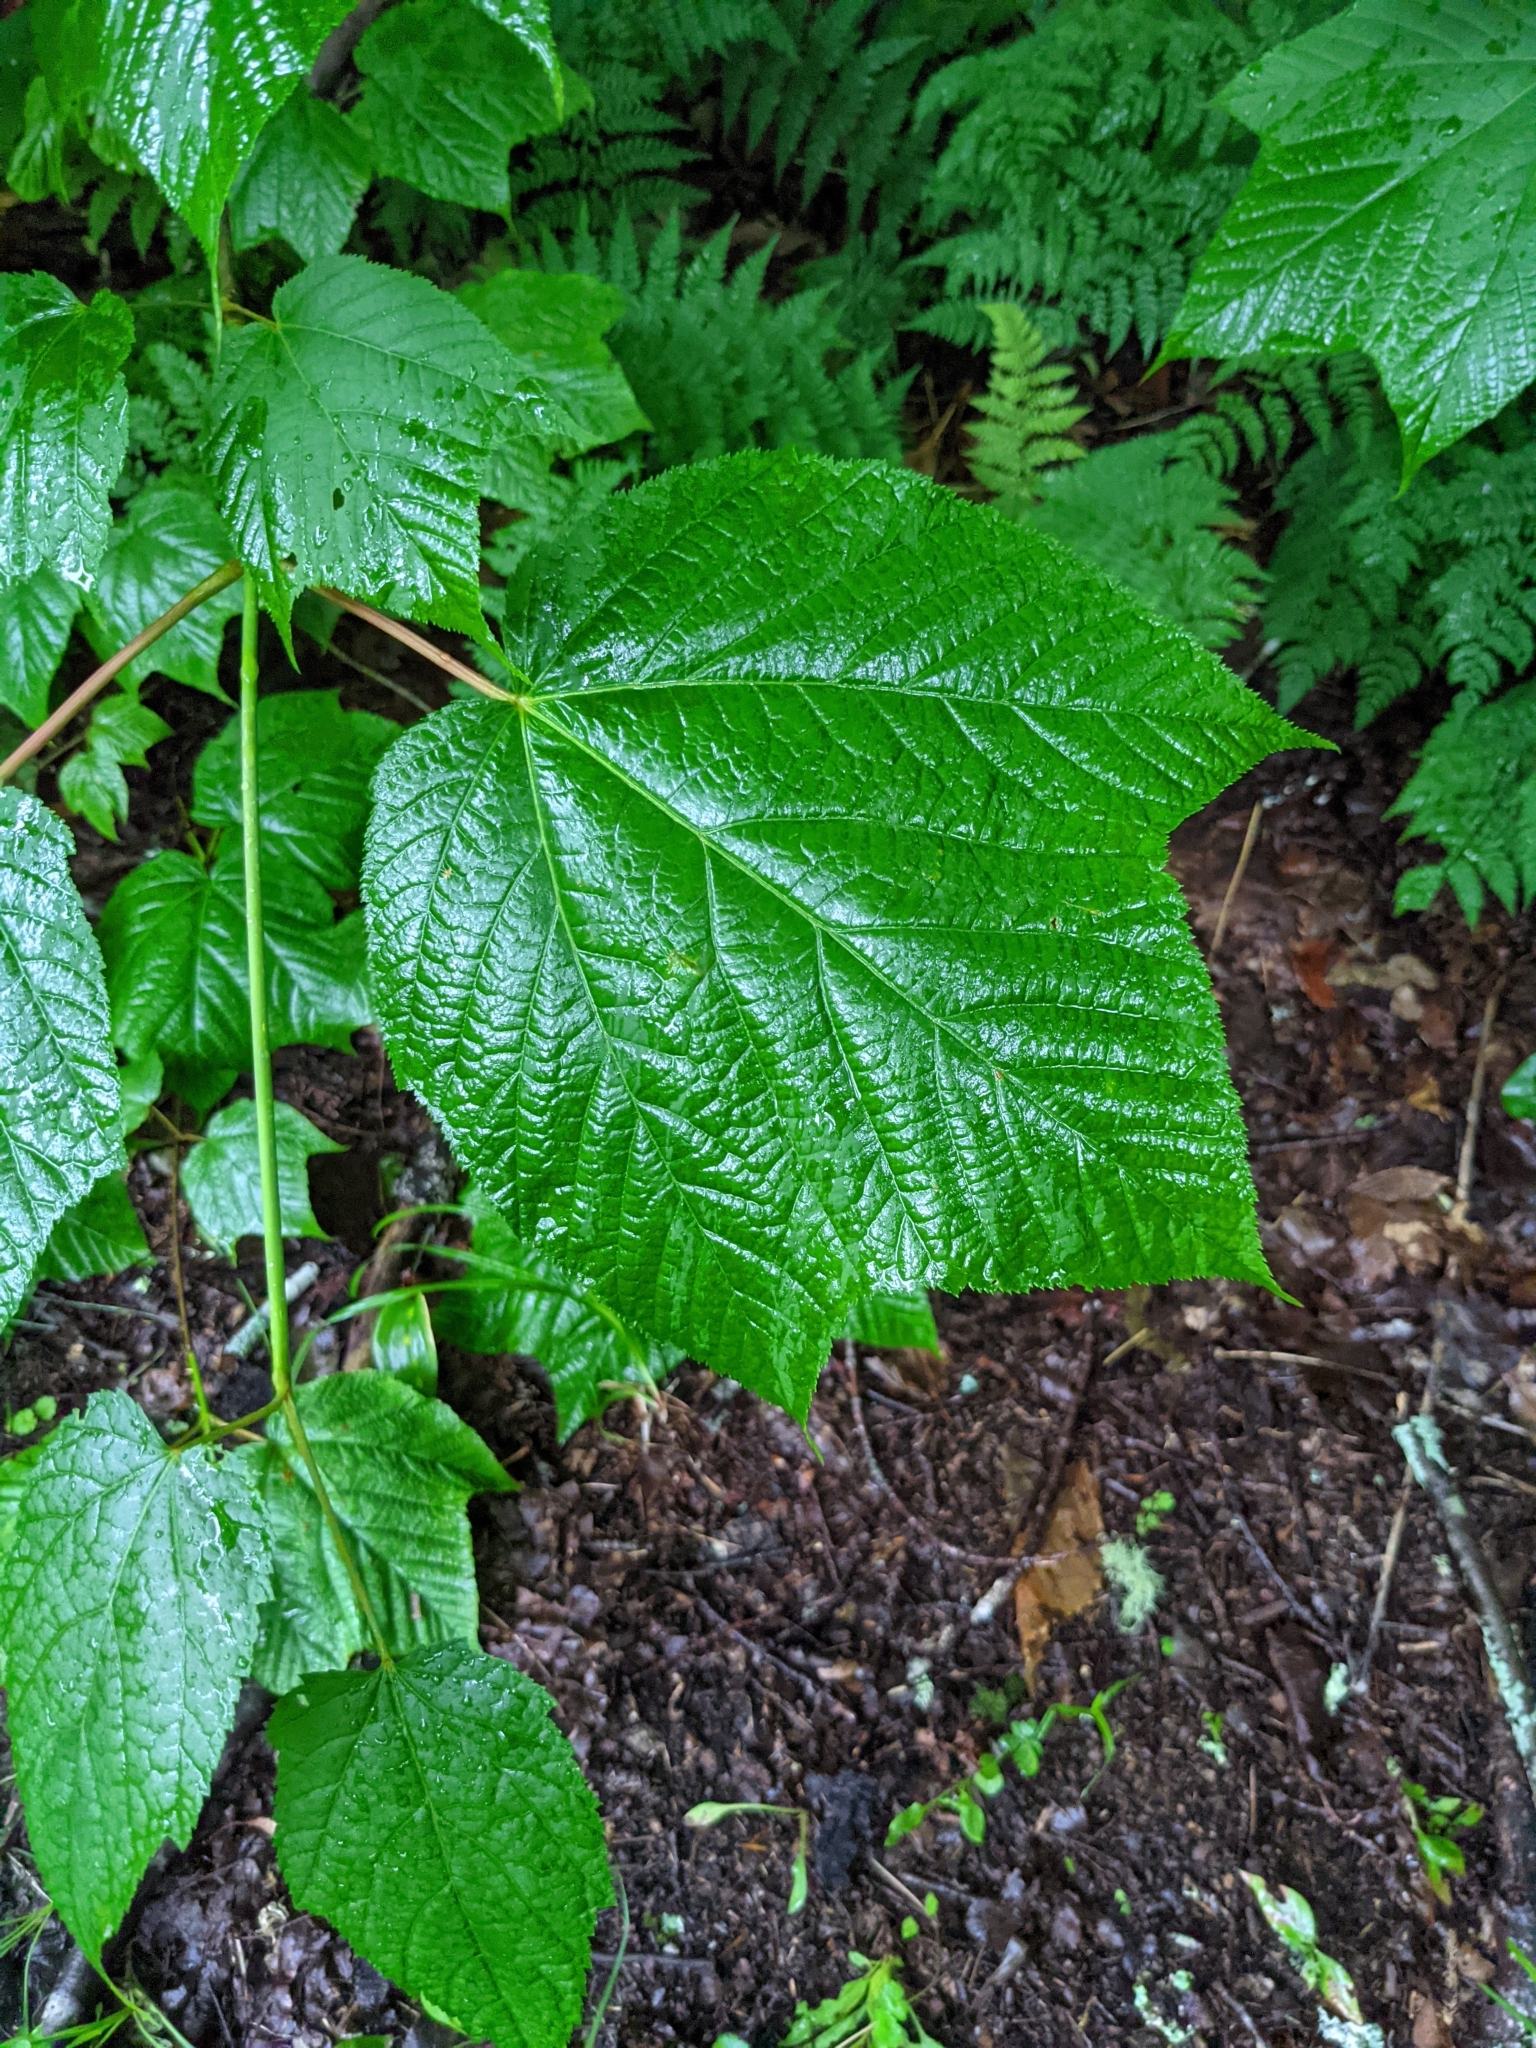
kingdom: Plantae
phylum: Tracheophyta
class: Magnoliopsida
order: Sapindales
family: Sapindaceae
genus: Acer
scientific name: Acer pensylvanicum
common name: Moosewood
